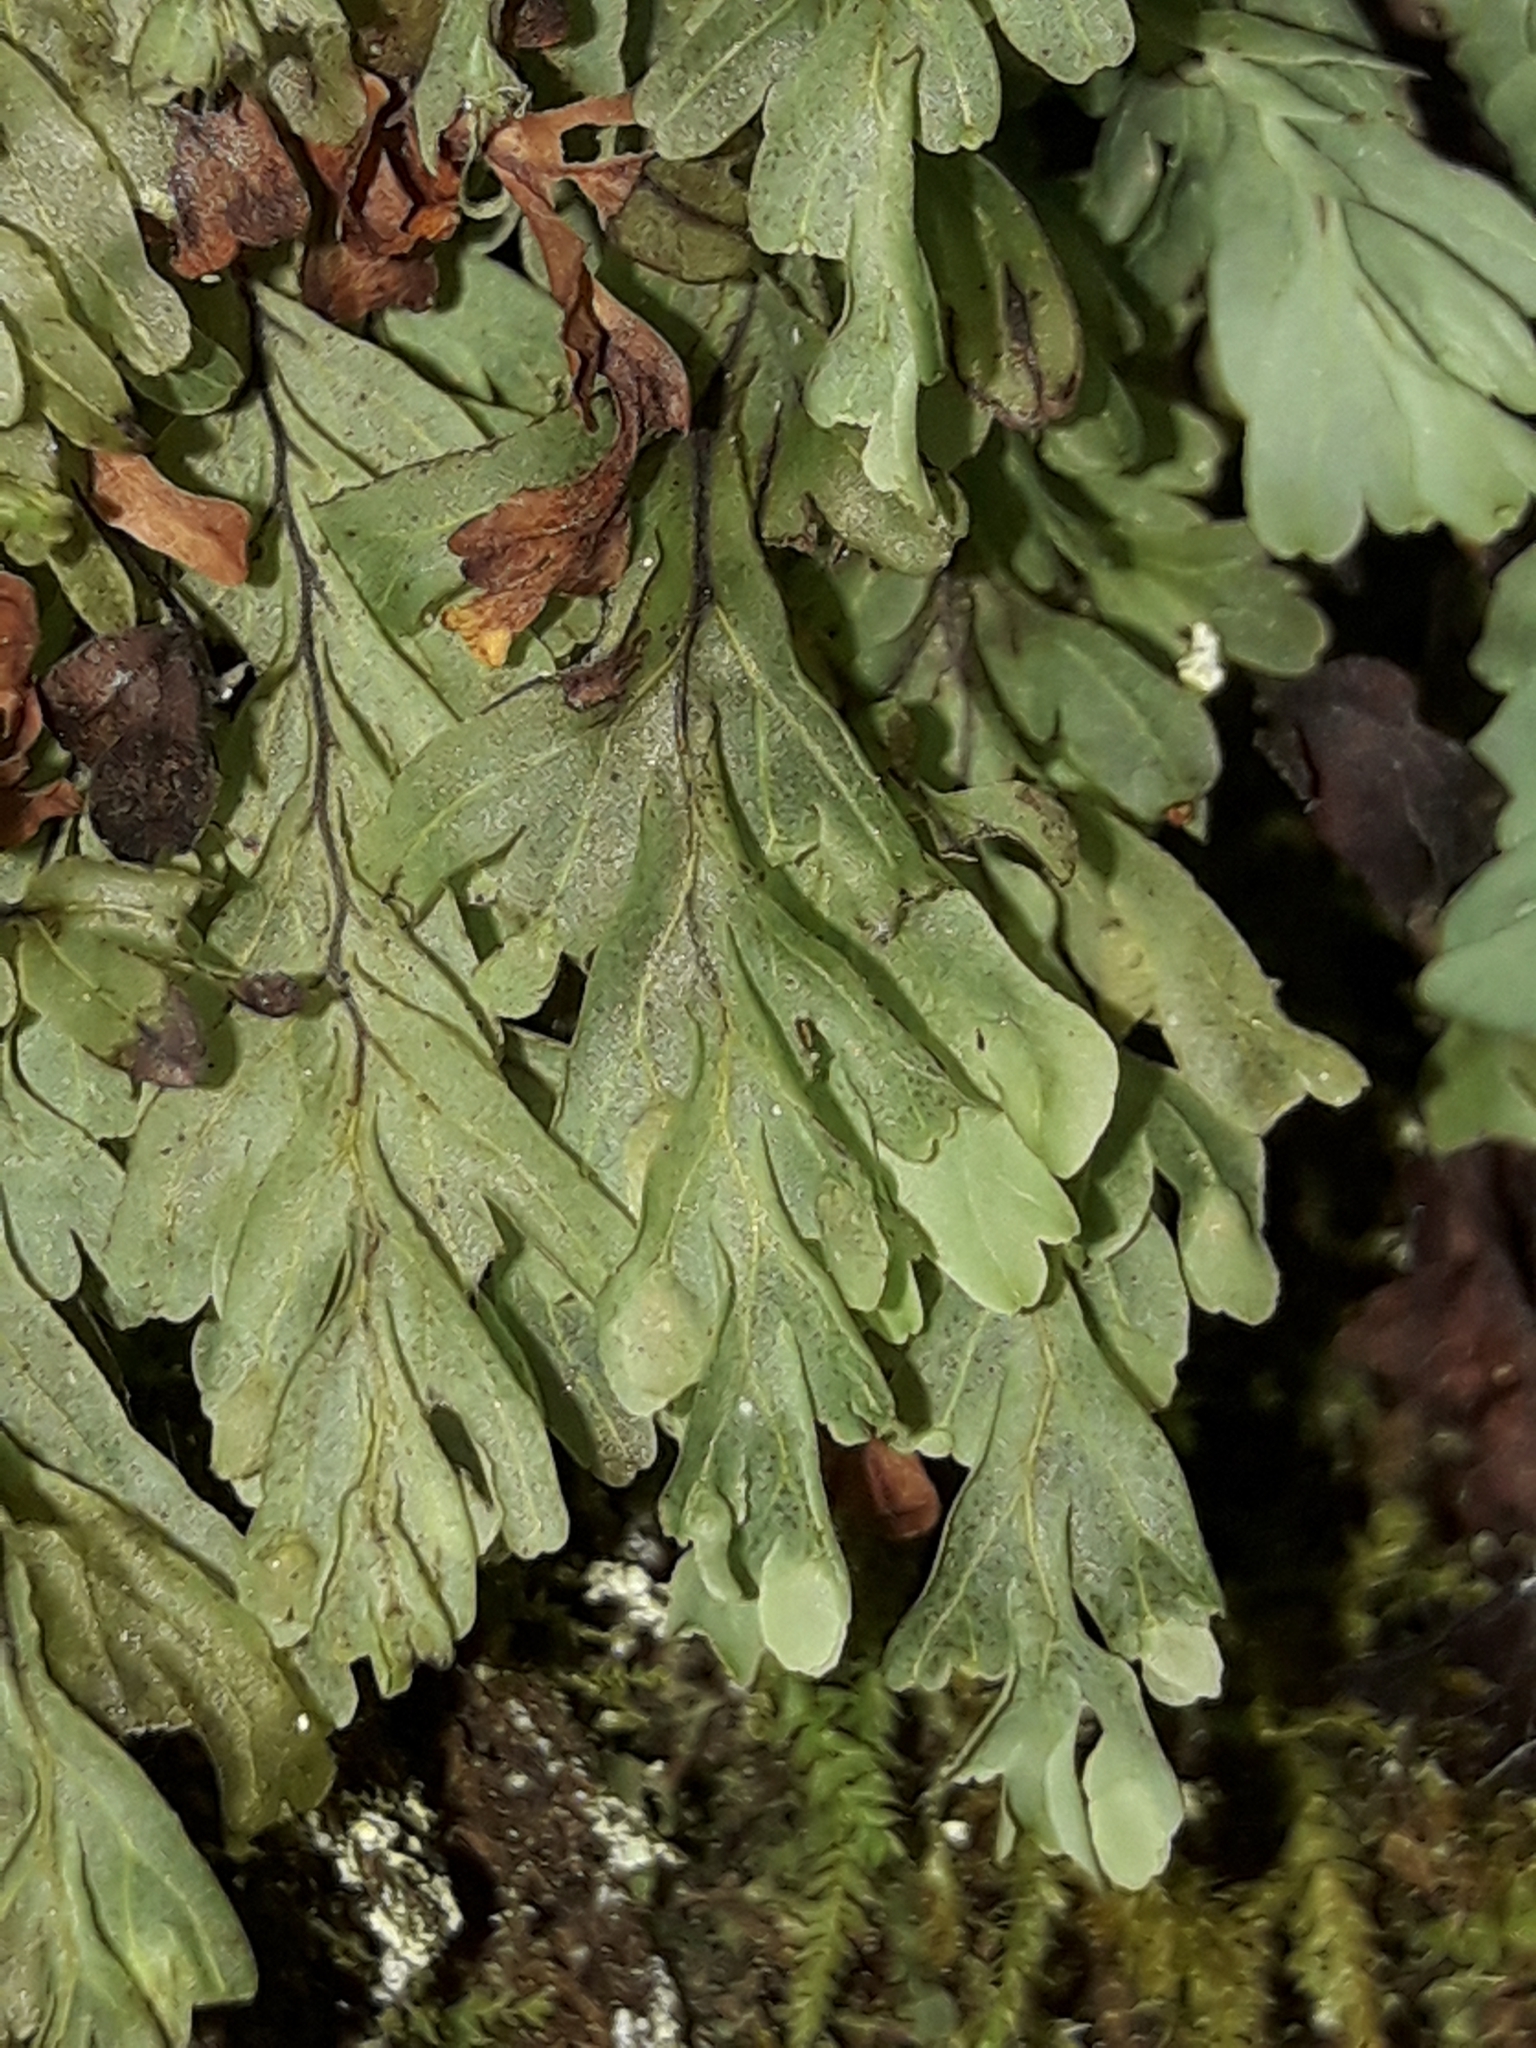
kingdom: Plantae
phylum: Tracheophyta
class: Polypodiopsida
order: Hymenophyllales
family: Hymenophyllaceae
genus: Hymenophyllum
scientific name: Hymenophyllum rarum
